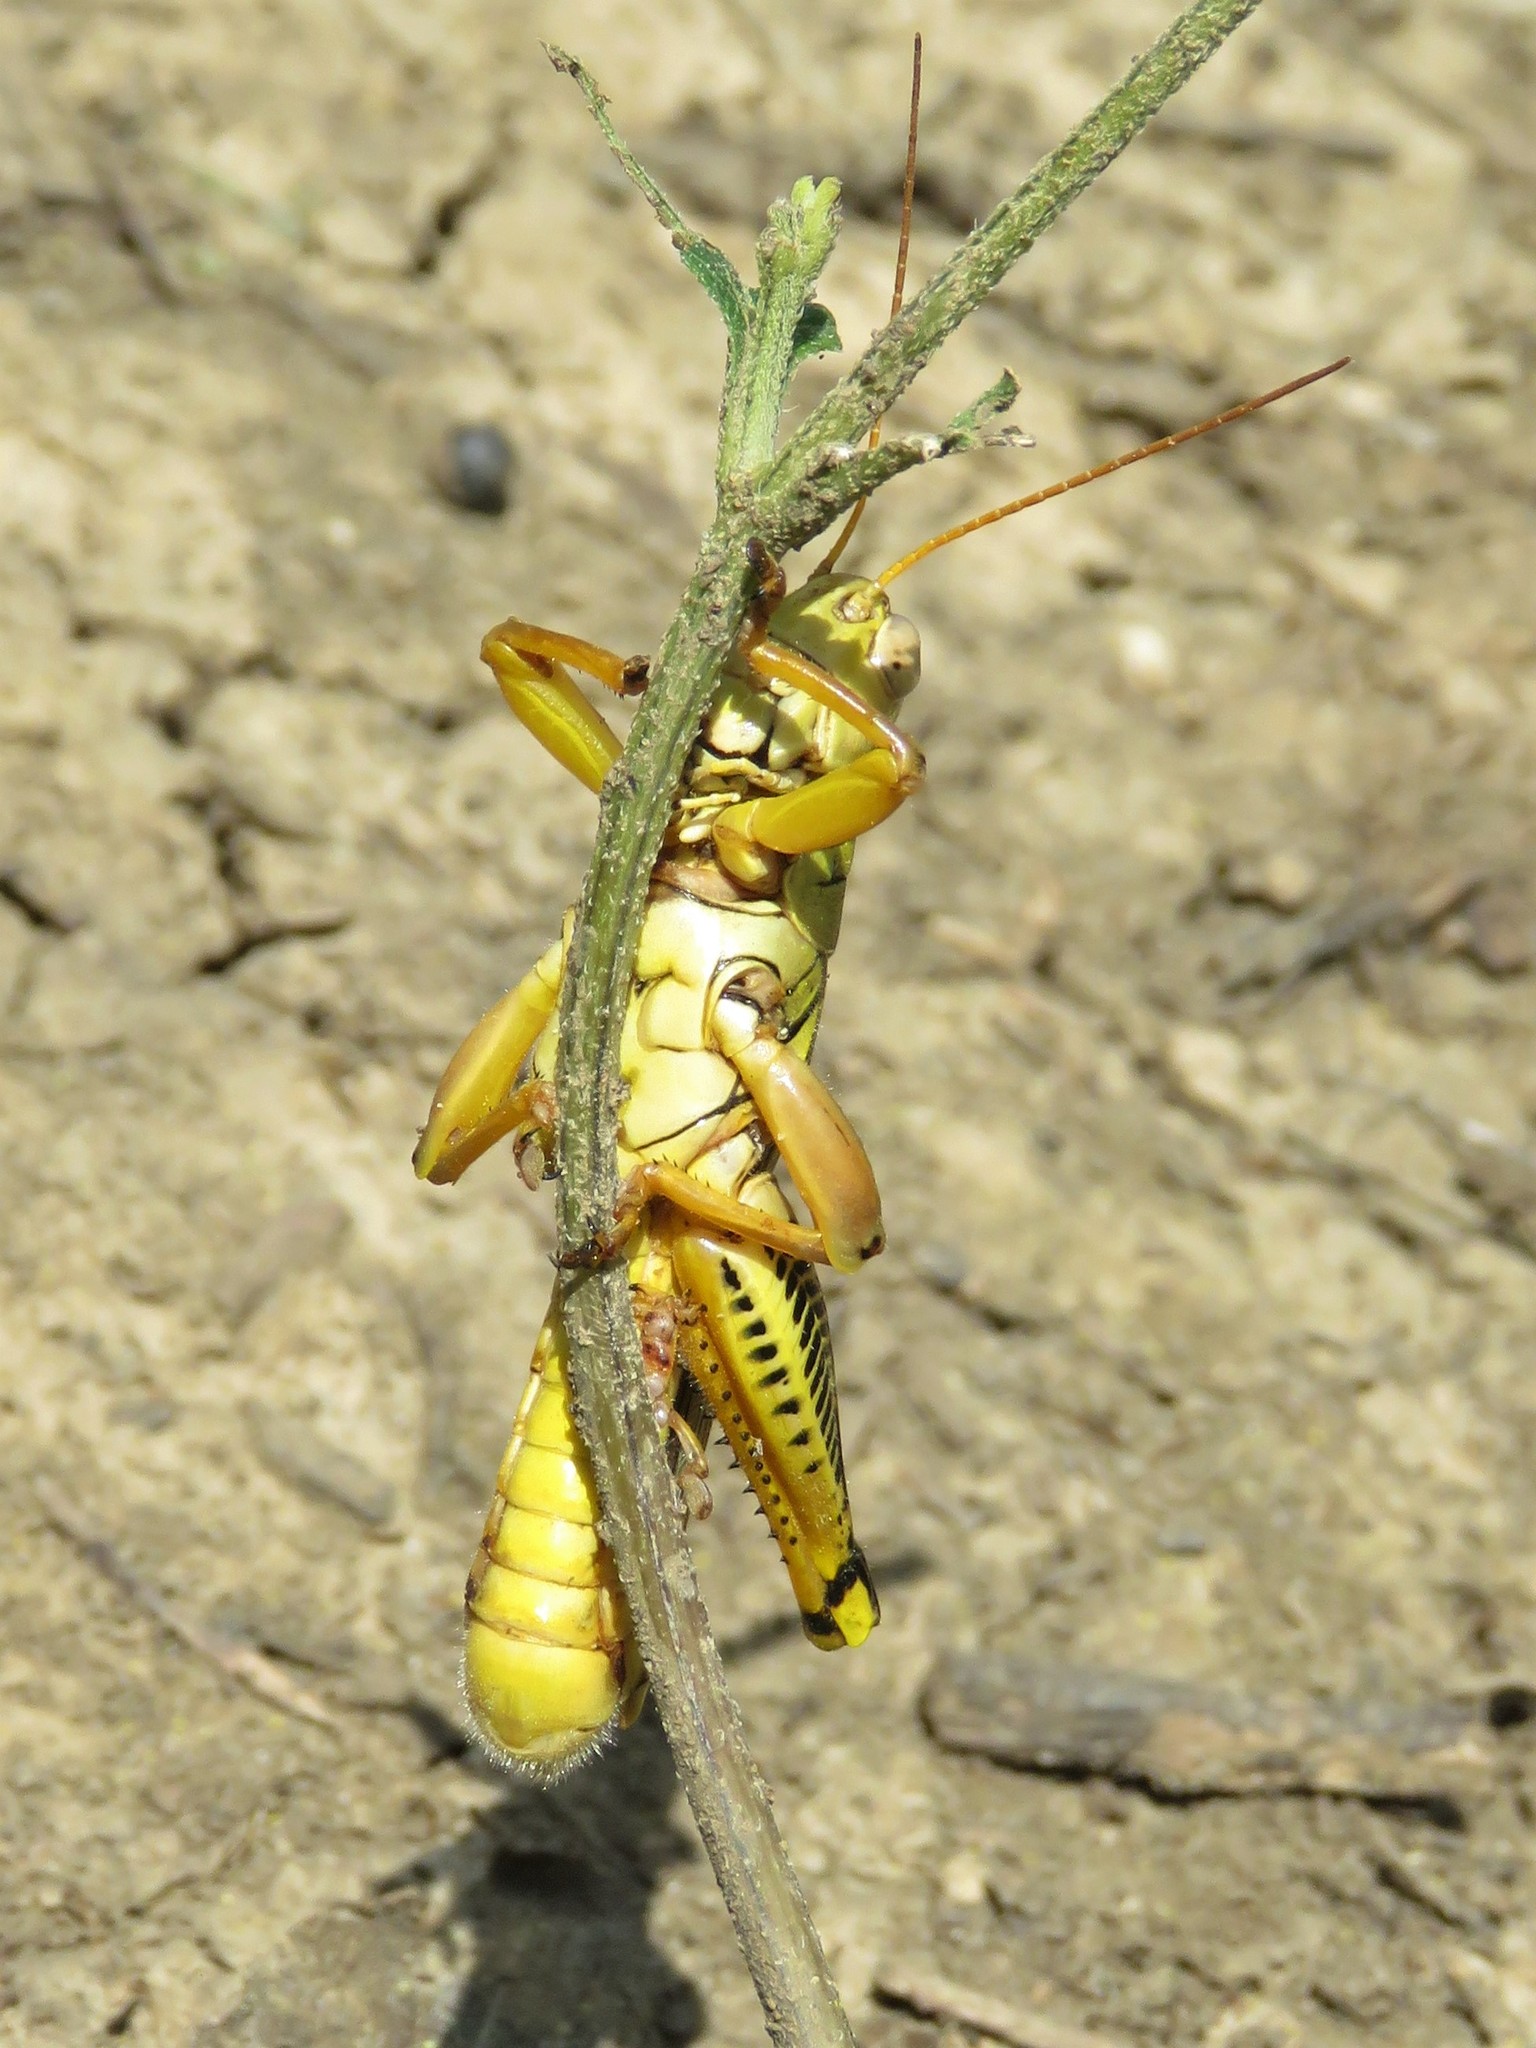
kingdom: Animalia
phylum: Arthropoda
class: Insecta
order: Orthoptera
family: Acrididae
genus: Melanoplus
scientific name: Melanoplus differentialis
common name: Differential grasshopper
